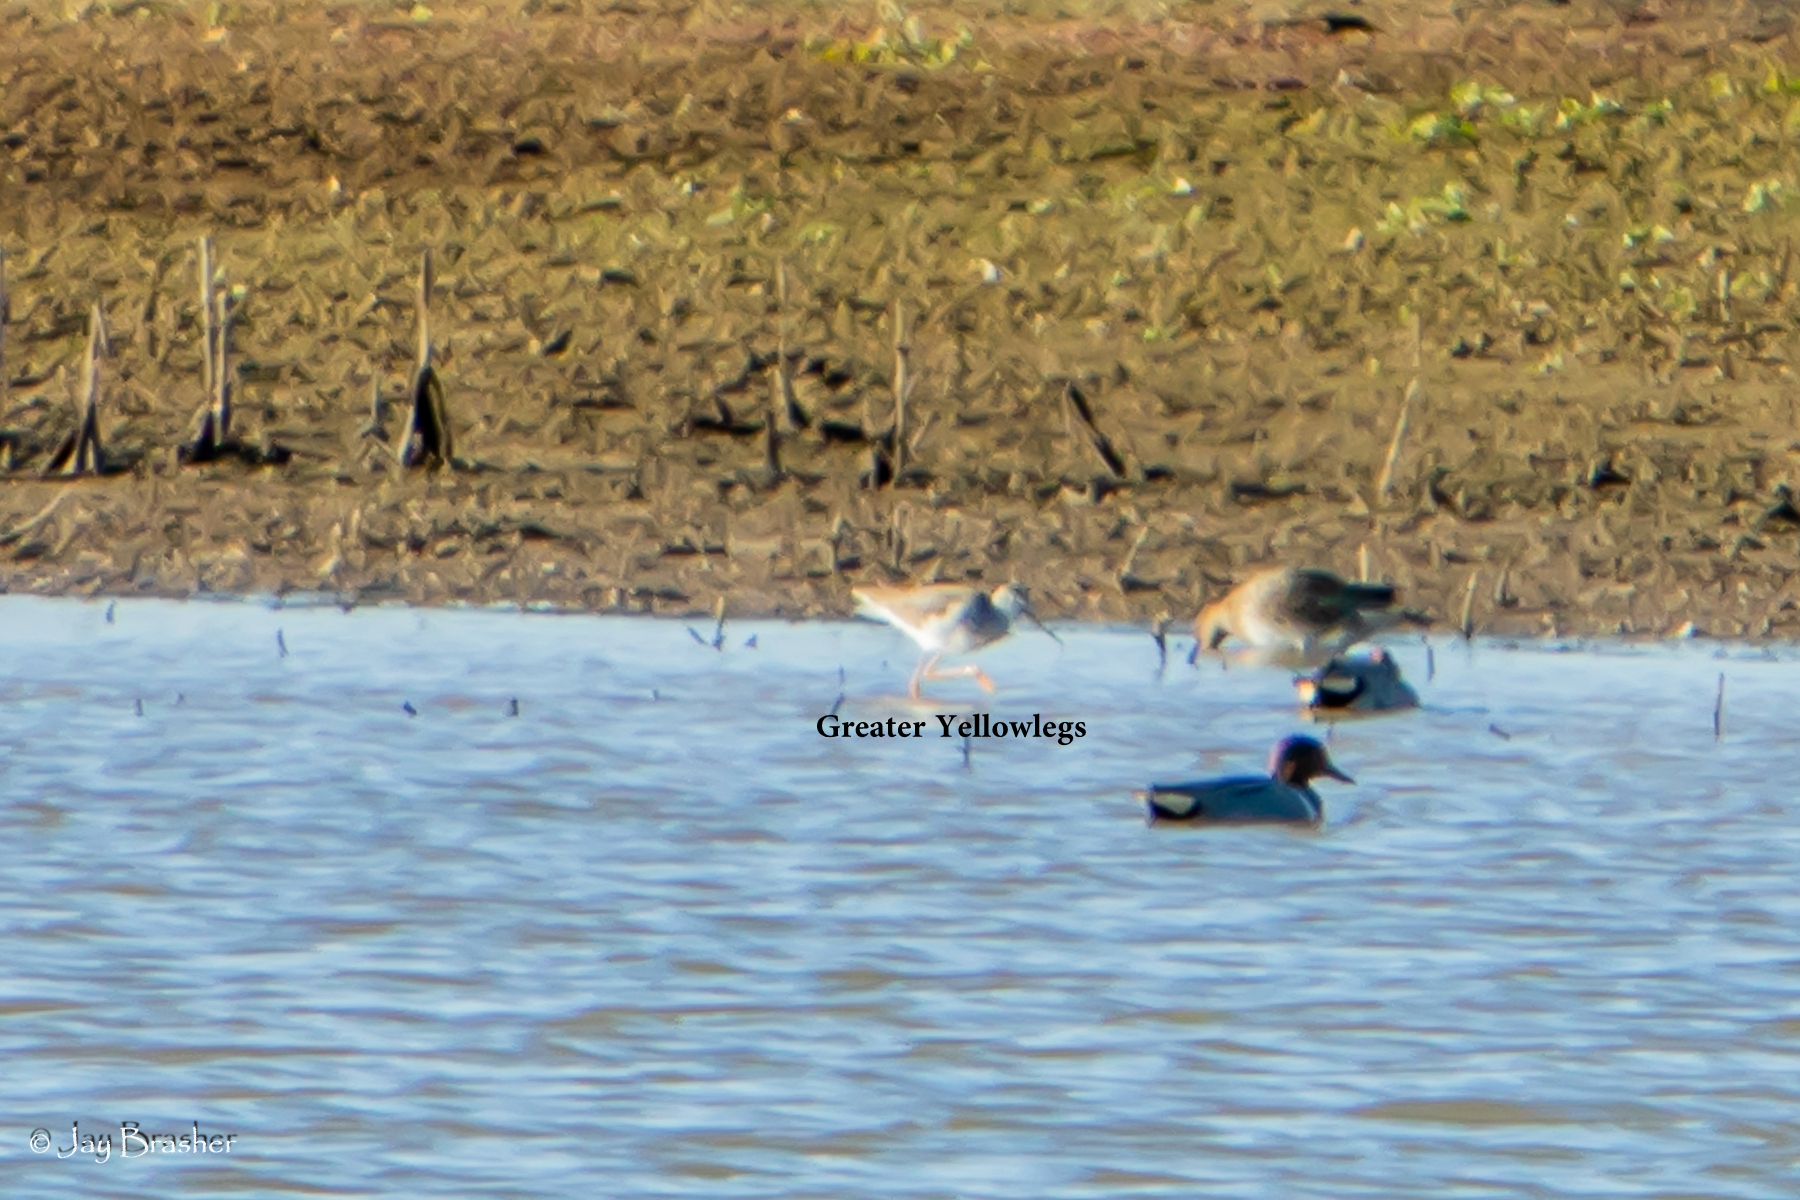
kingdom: Animalia
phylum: Chordata
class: Aves
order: Charadriiformes
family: Scolopacidae
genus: Tringa
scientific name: Tringa melanoleuca
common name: Greater yellowlegs
